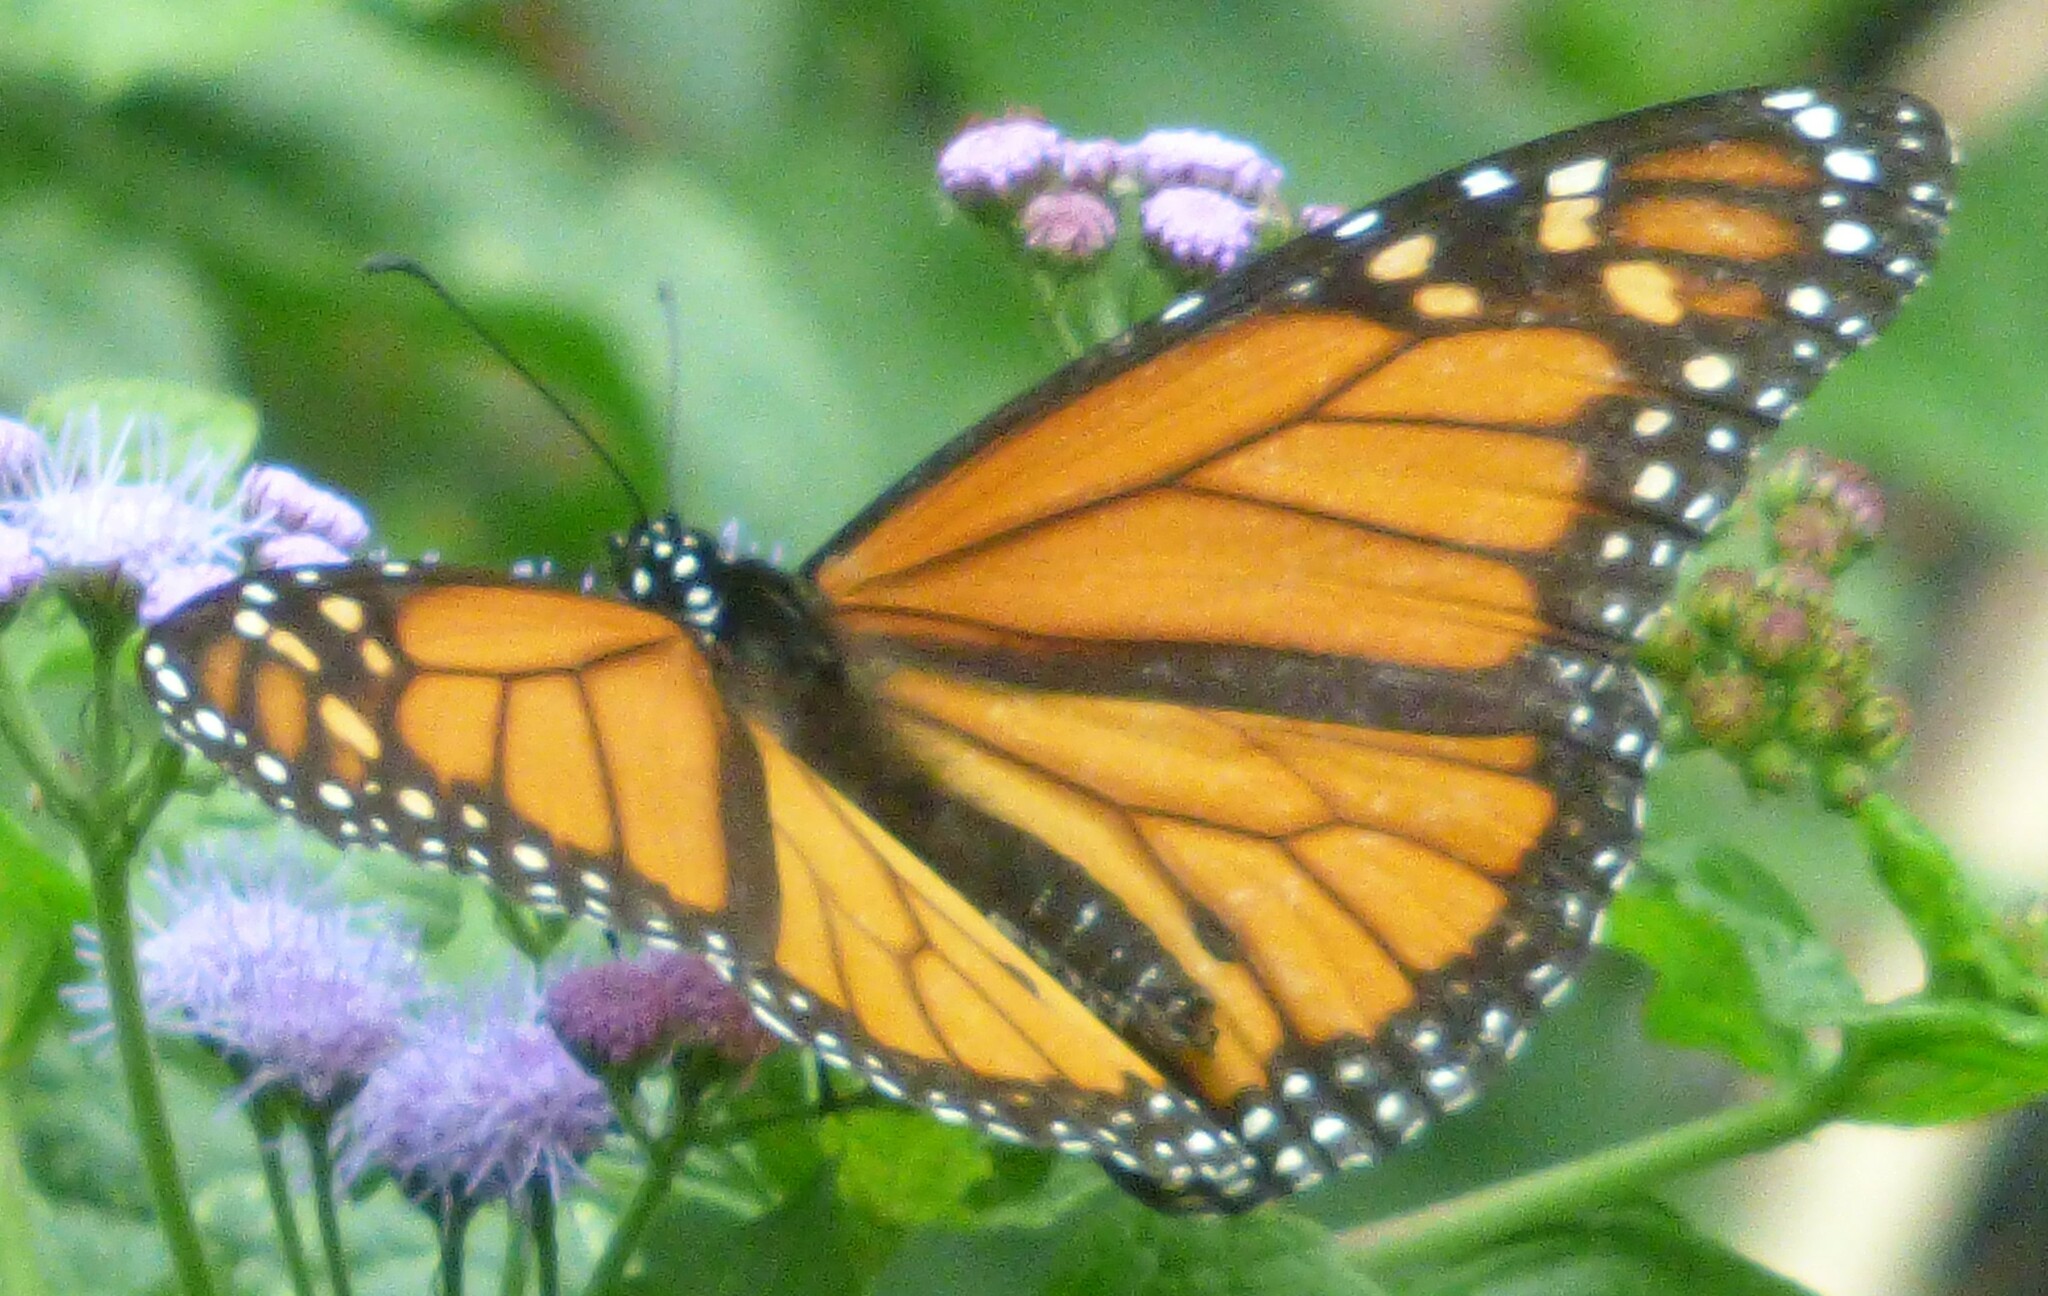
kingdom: Animalia
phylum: Arthropoda
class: Insecta
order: Lepidoptera
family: Nymphalidae
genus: Danaus
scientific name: Danaus plexippus
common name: Monarch
